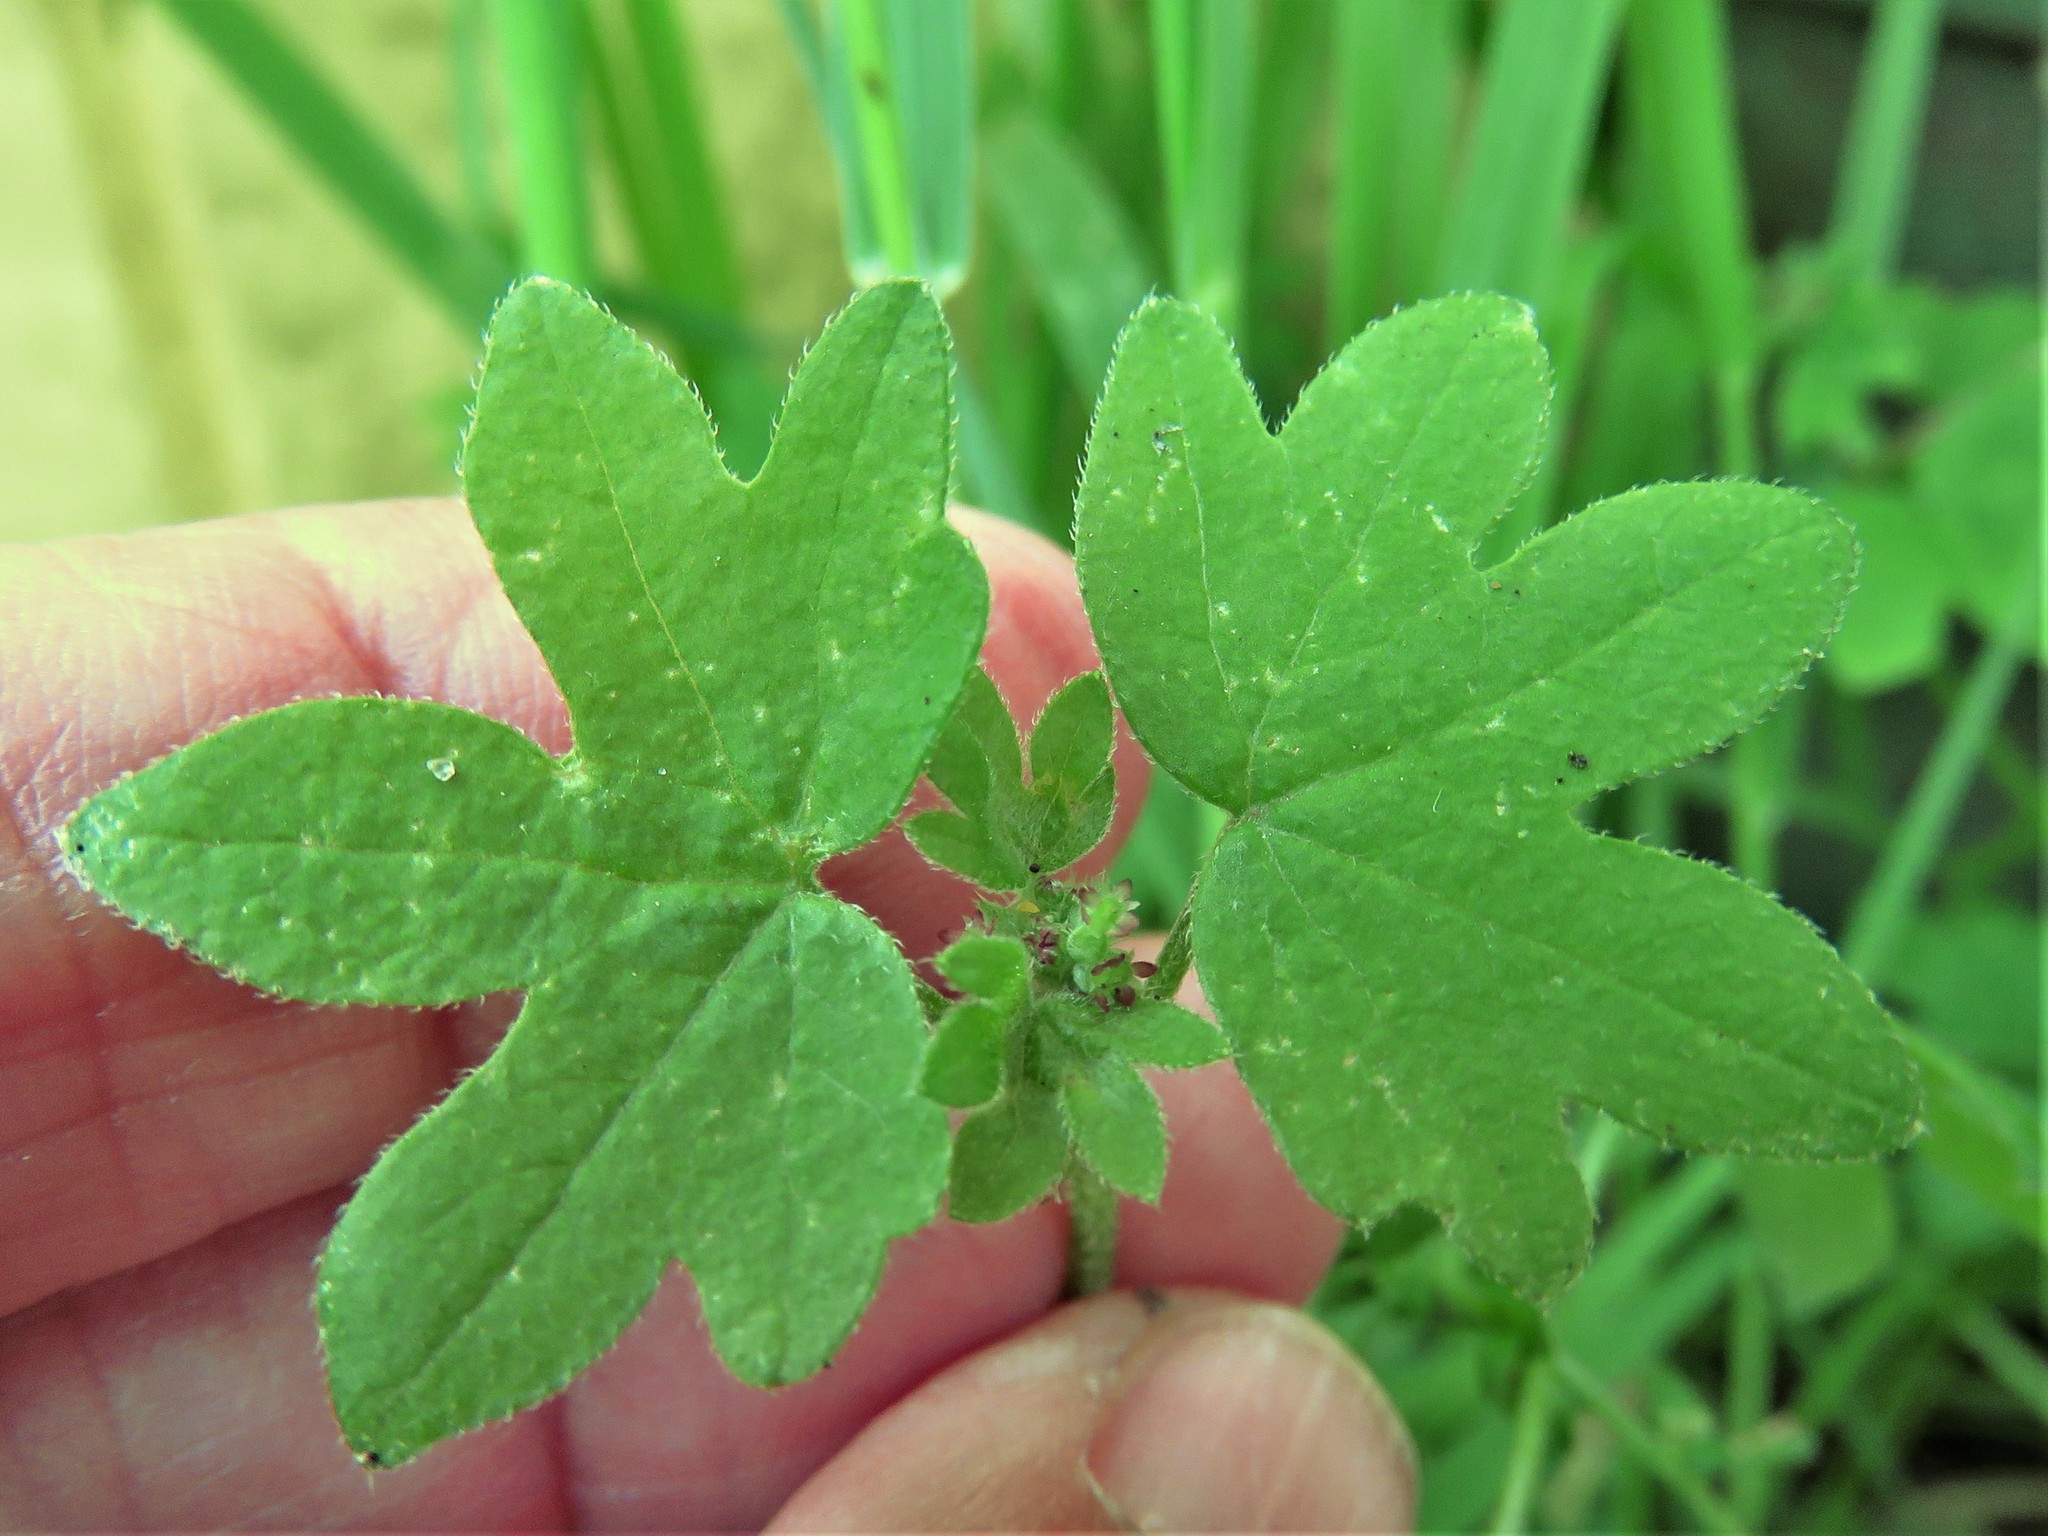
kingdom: Plantae
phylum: Tracheophyta
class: Magnoliopsida
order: Apiales
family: Apiaceae
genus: Bowlesia
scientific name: Bowlesia incana
